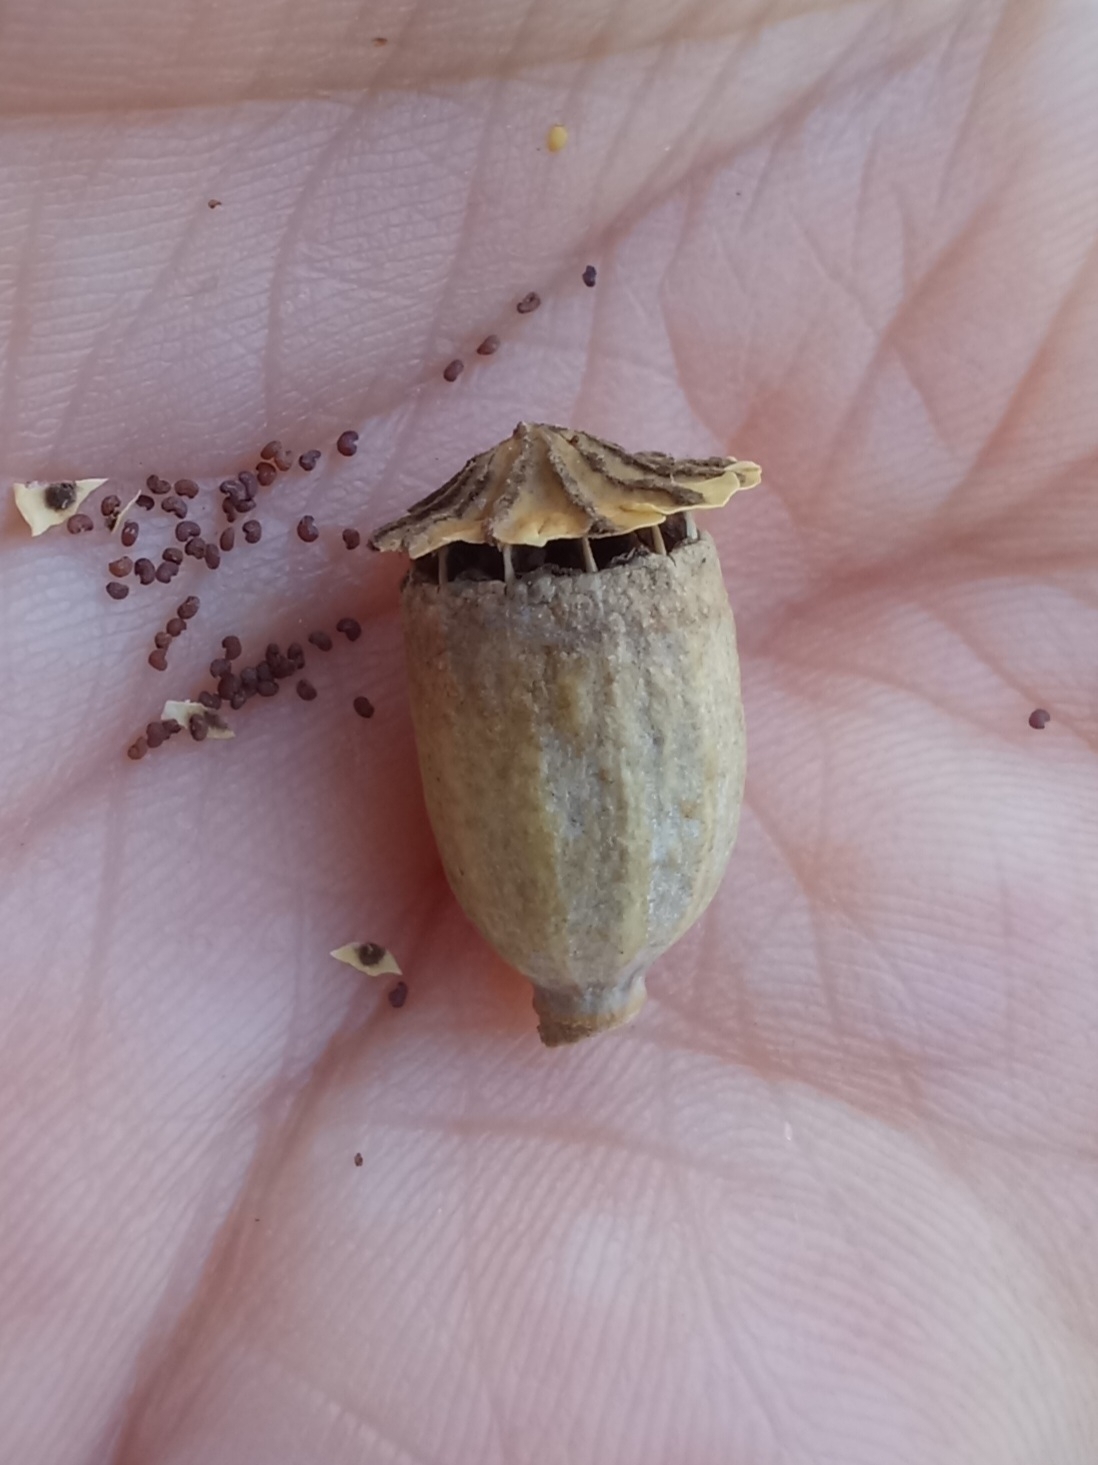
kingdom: Plantae
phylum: Tracheophyta
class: Magnoliopsida
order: Ranunculales
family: Papaveraceae
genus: Papaver
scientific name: Papaver rhoeas
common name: Corn poppy
